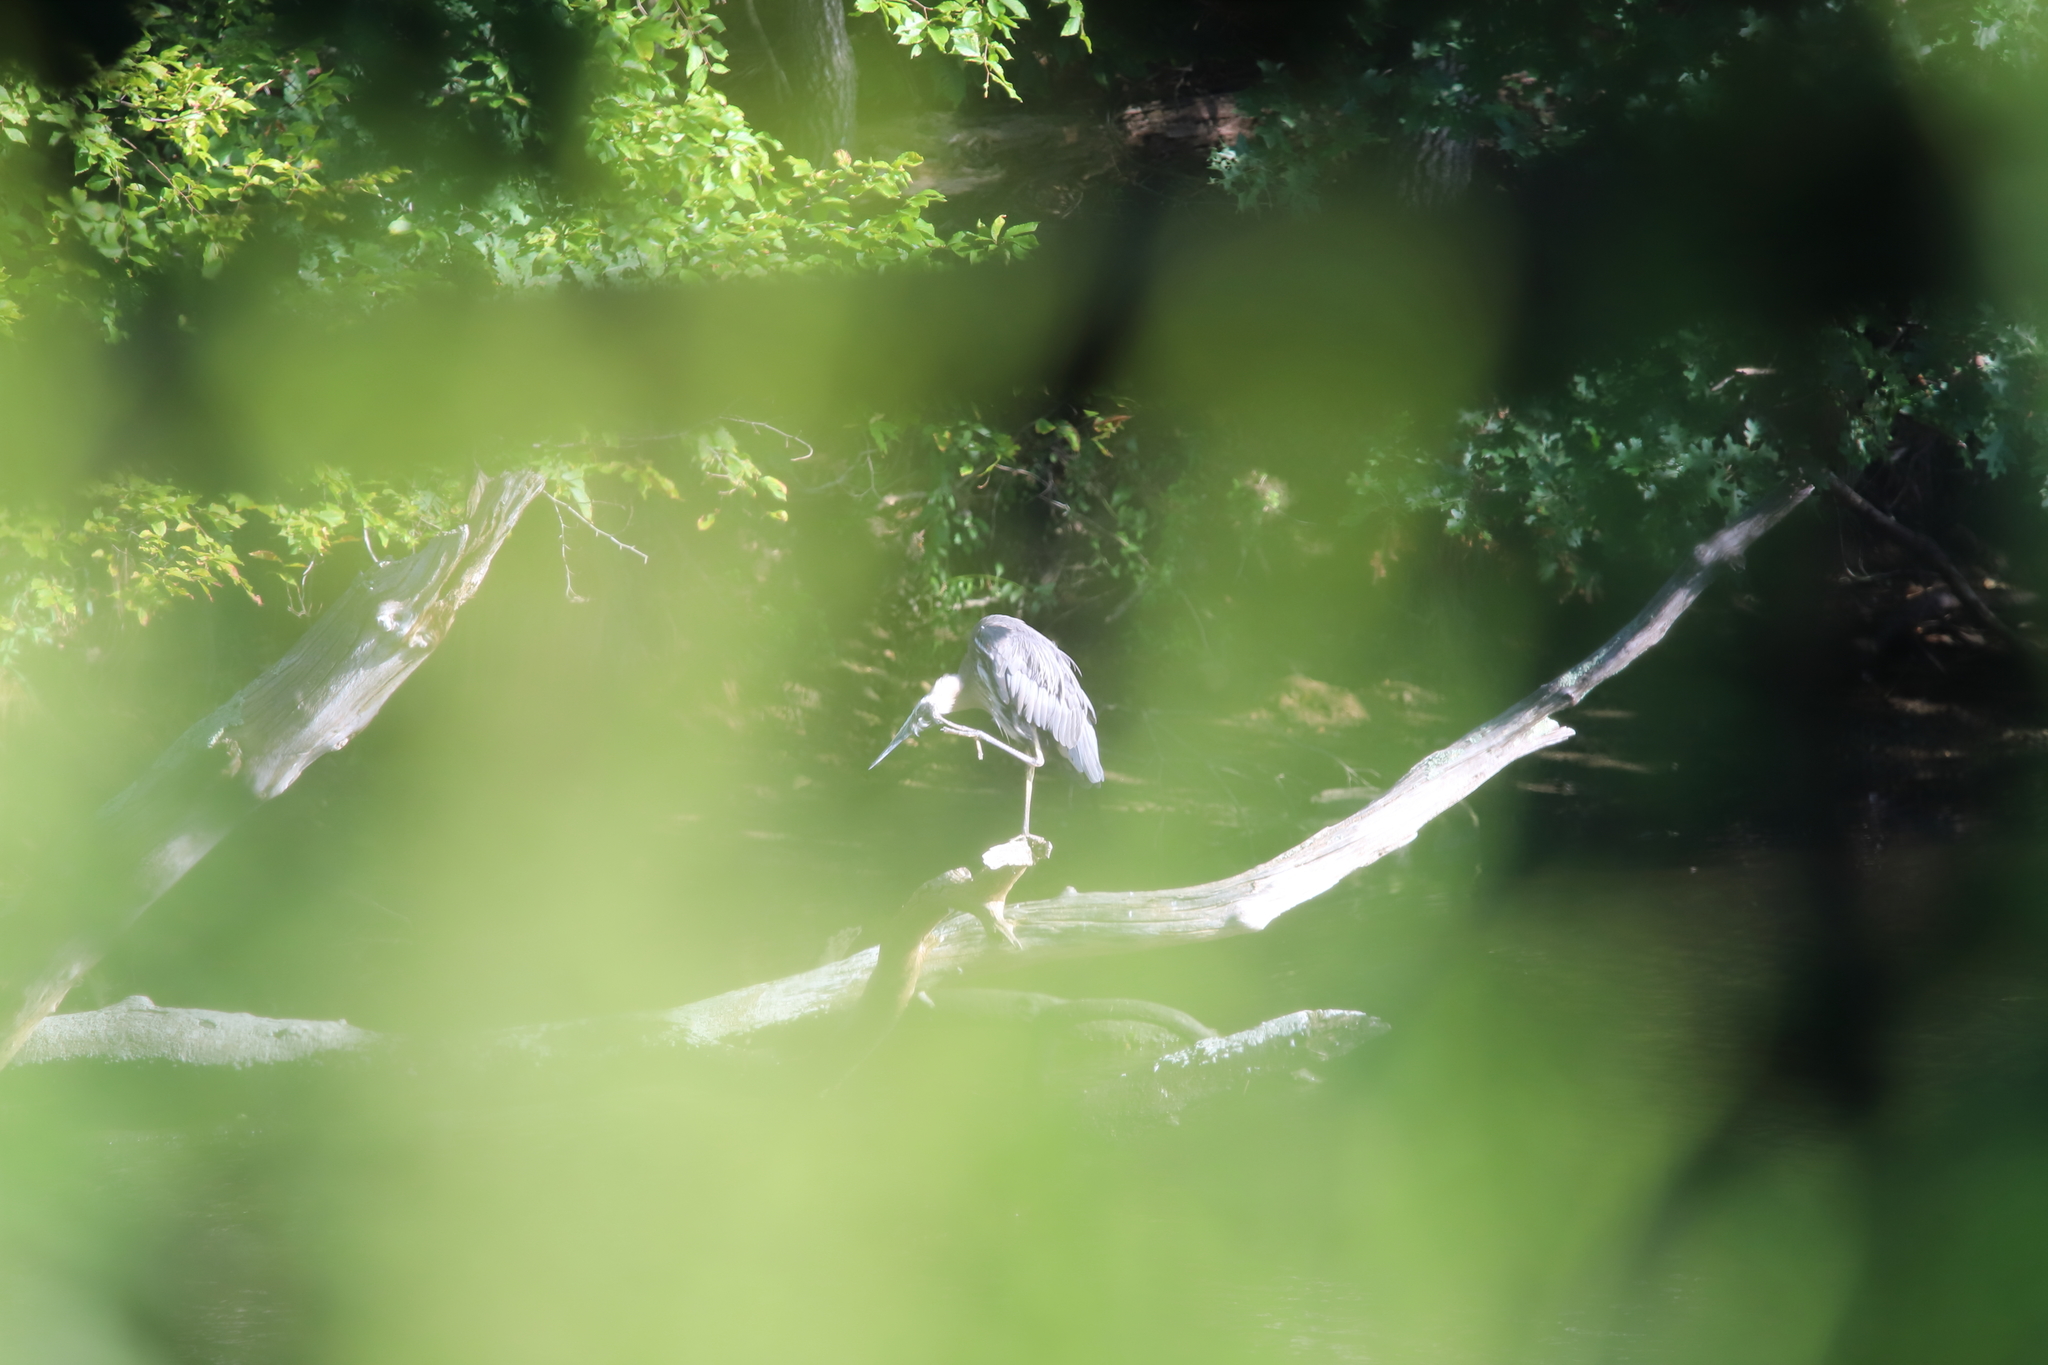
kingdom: Animalia
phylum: Chordata
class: Aves
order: Pelecaniformes
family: Ardeidae
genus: Ardea
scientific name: Ardea herodias
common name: Great blue heron
